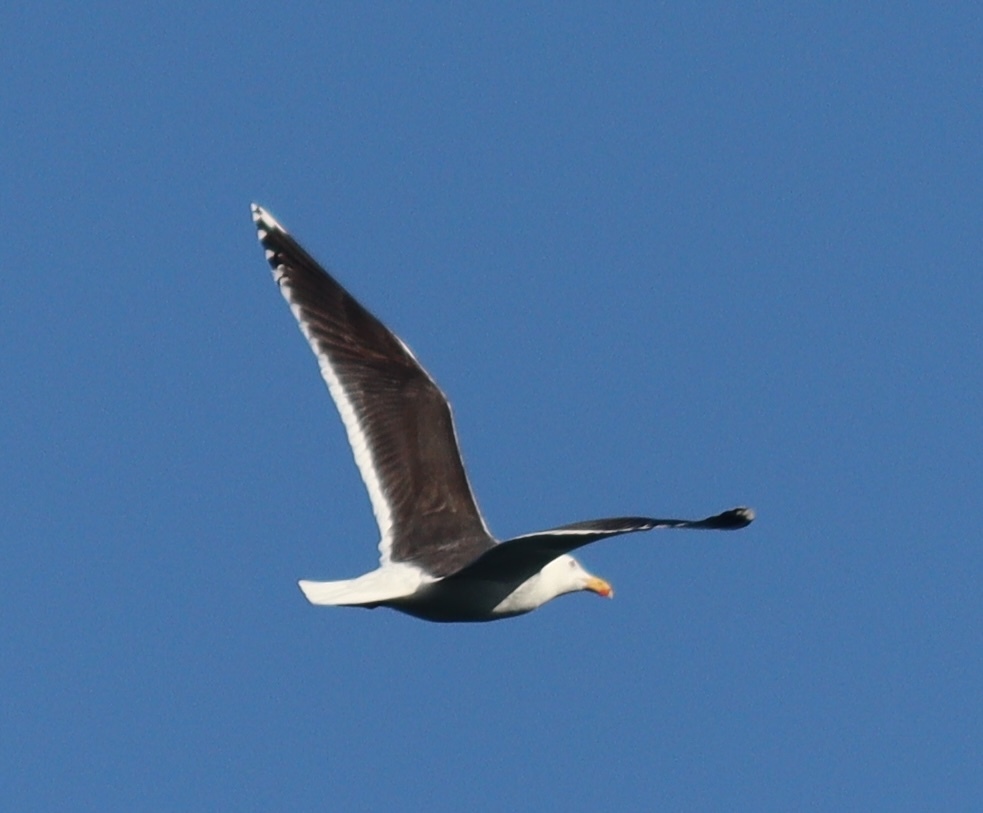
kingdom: Animalia
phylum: Chordata
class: Aves
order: Charadriiformes
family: Laridae
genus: Larus
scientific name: Larus marinus
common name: Great black-backed gull
